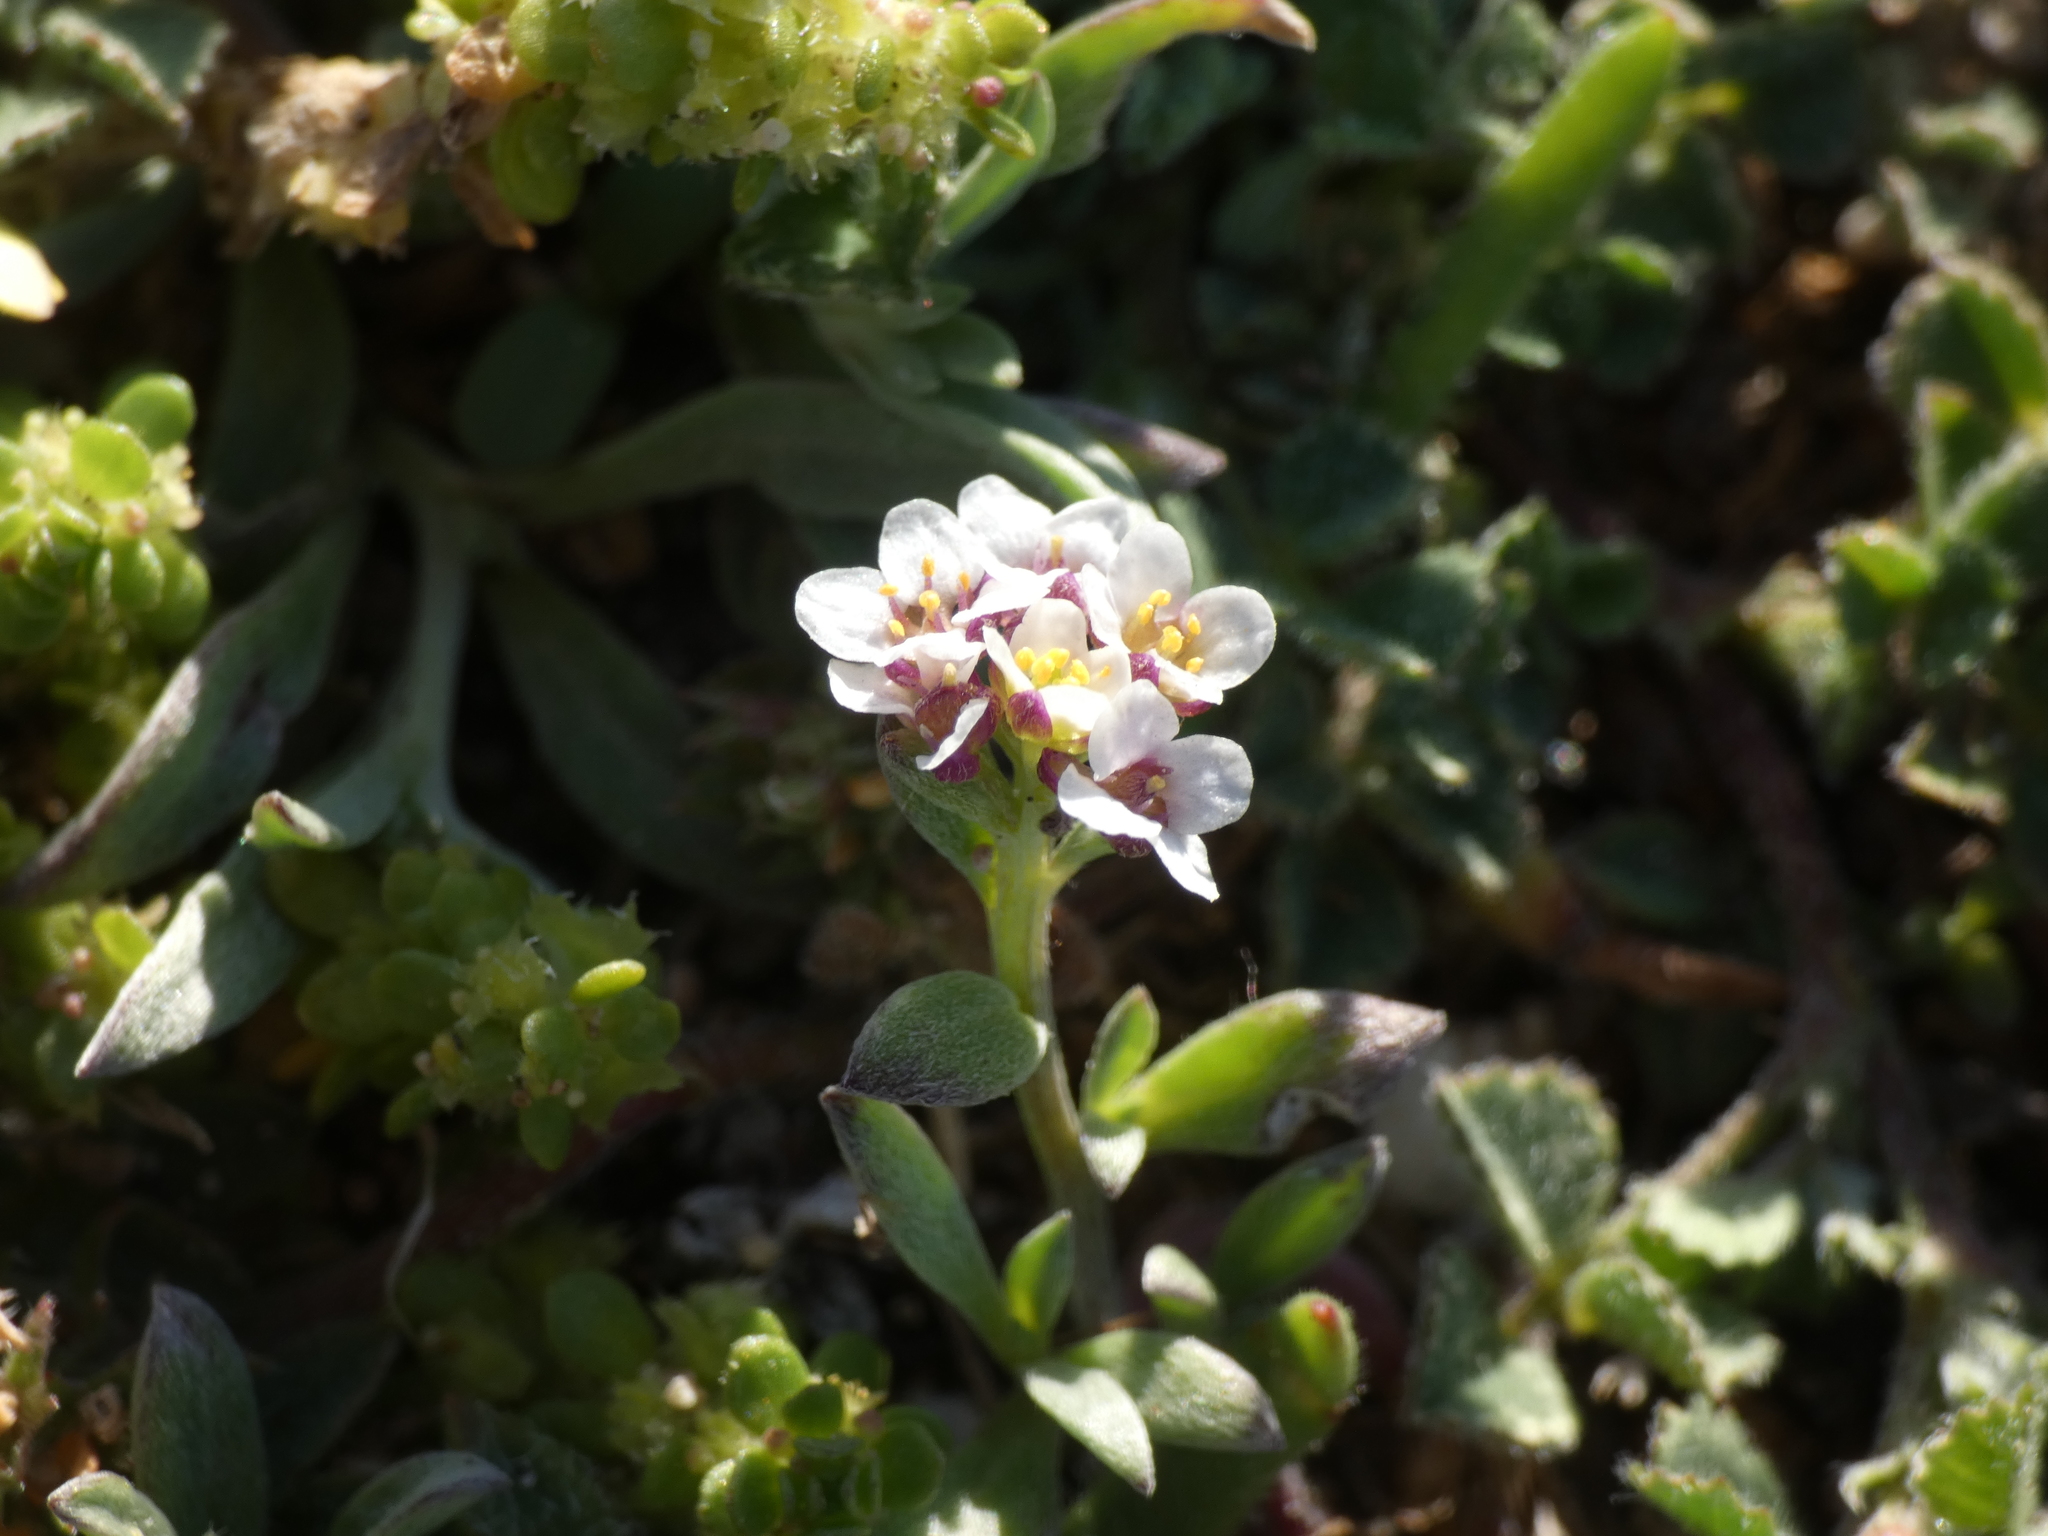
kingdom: Plantae
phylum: Tracheophyta
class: Magnoliopsida
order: Brassicales
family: Brassicaceae
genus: Lobularia
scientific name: Lobularia maritima
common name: Sweet alison
